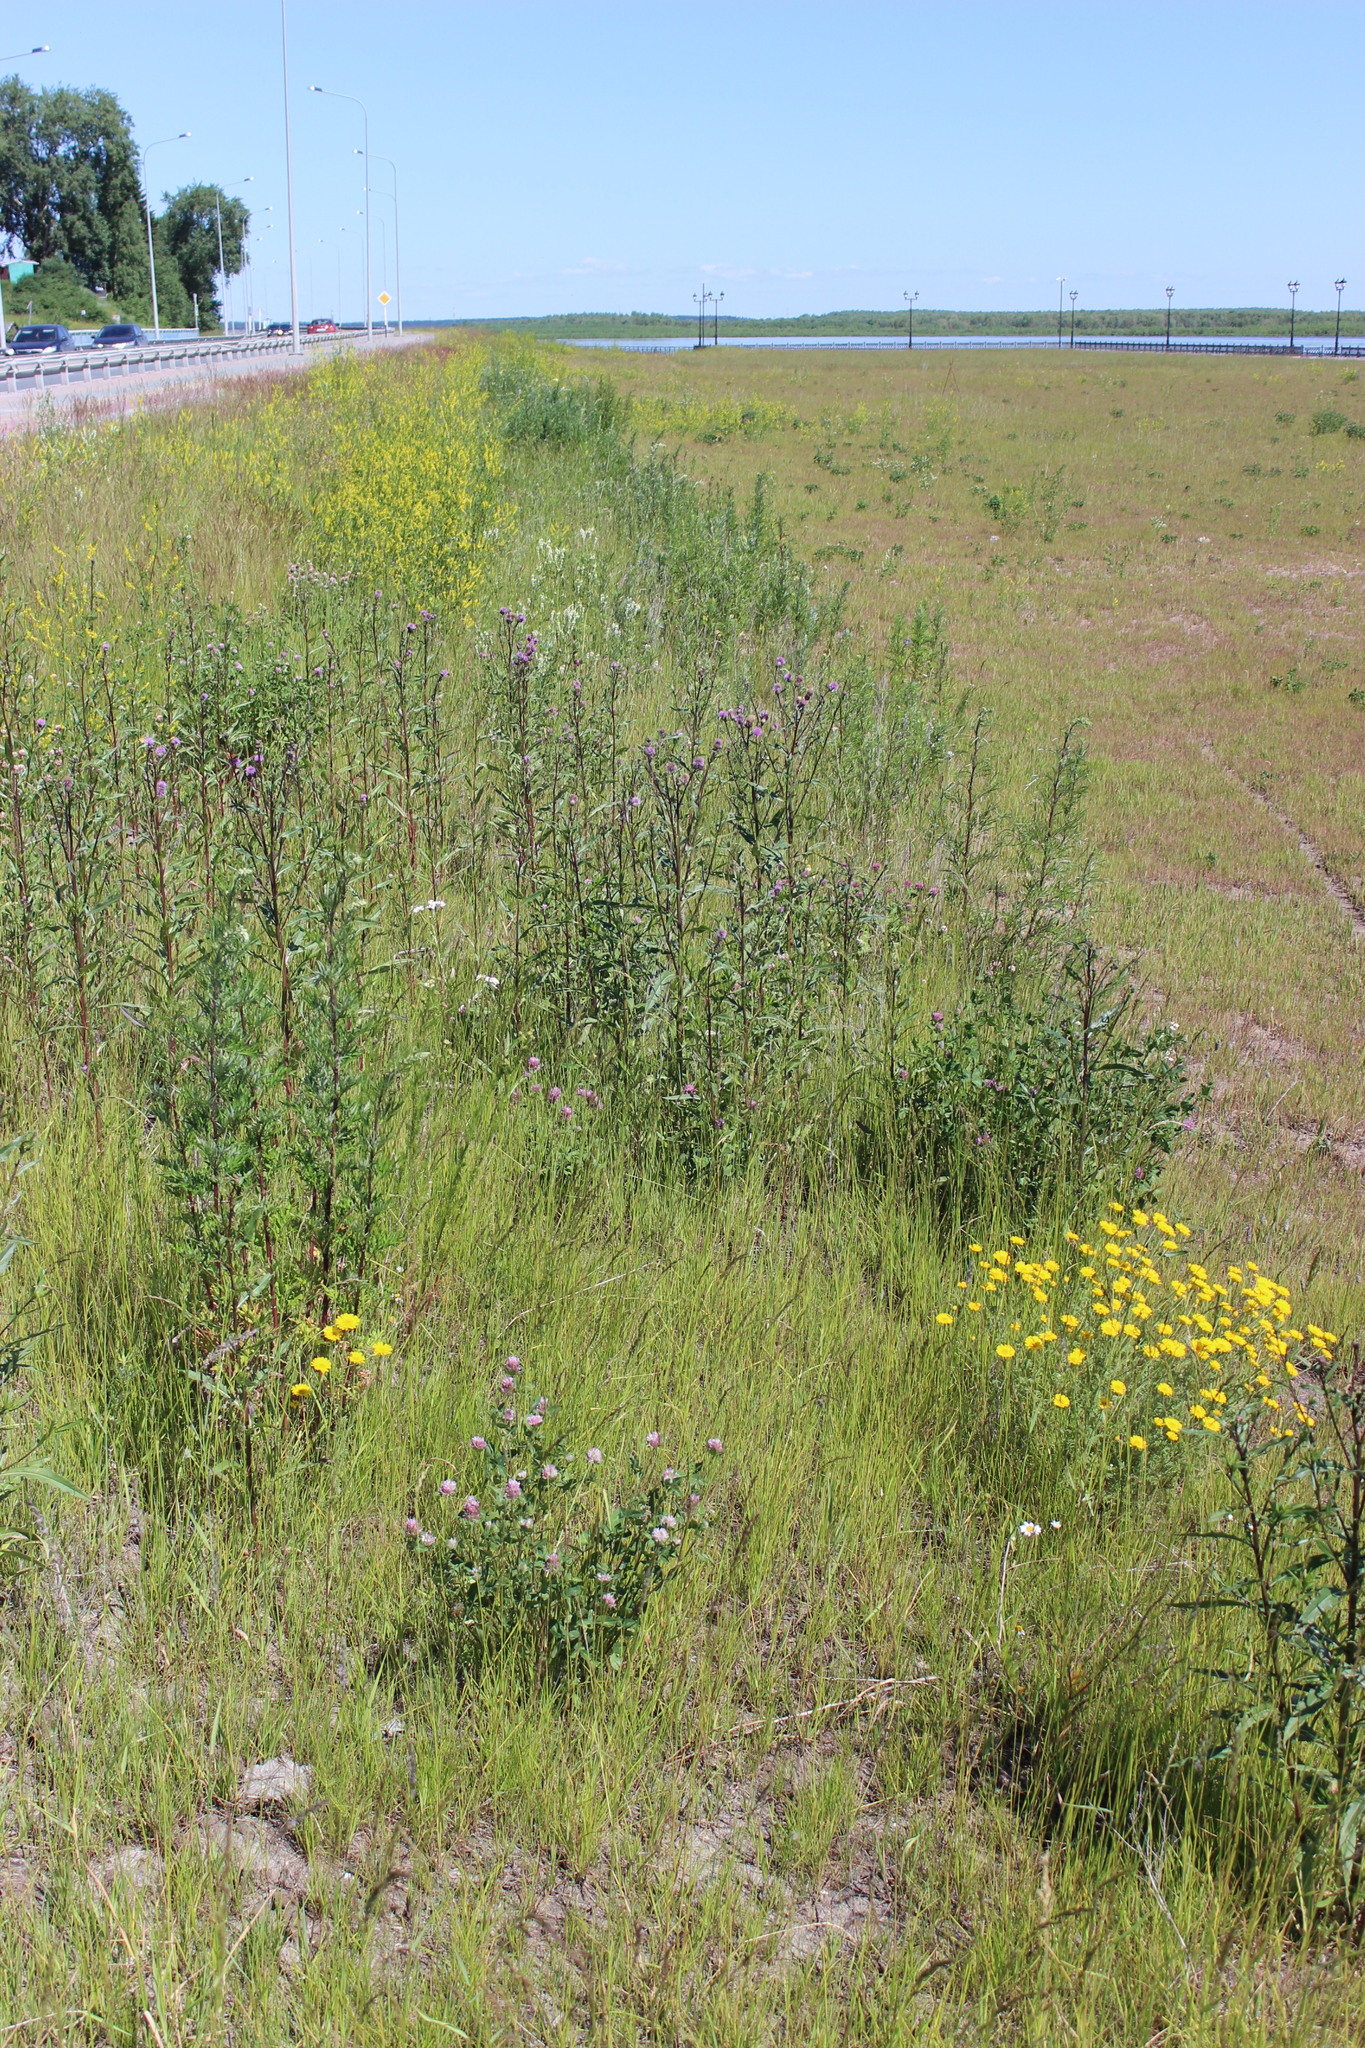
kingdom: Plantae
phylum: Tracheophyta
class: Magnoliopsida
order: Asterales
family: Asteraceae
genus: Cirsium
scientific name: Cirsium arvense
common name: Creeping thistle
